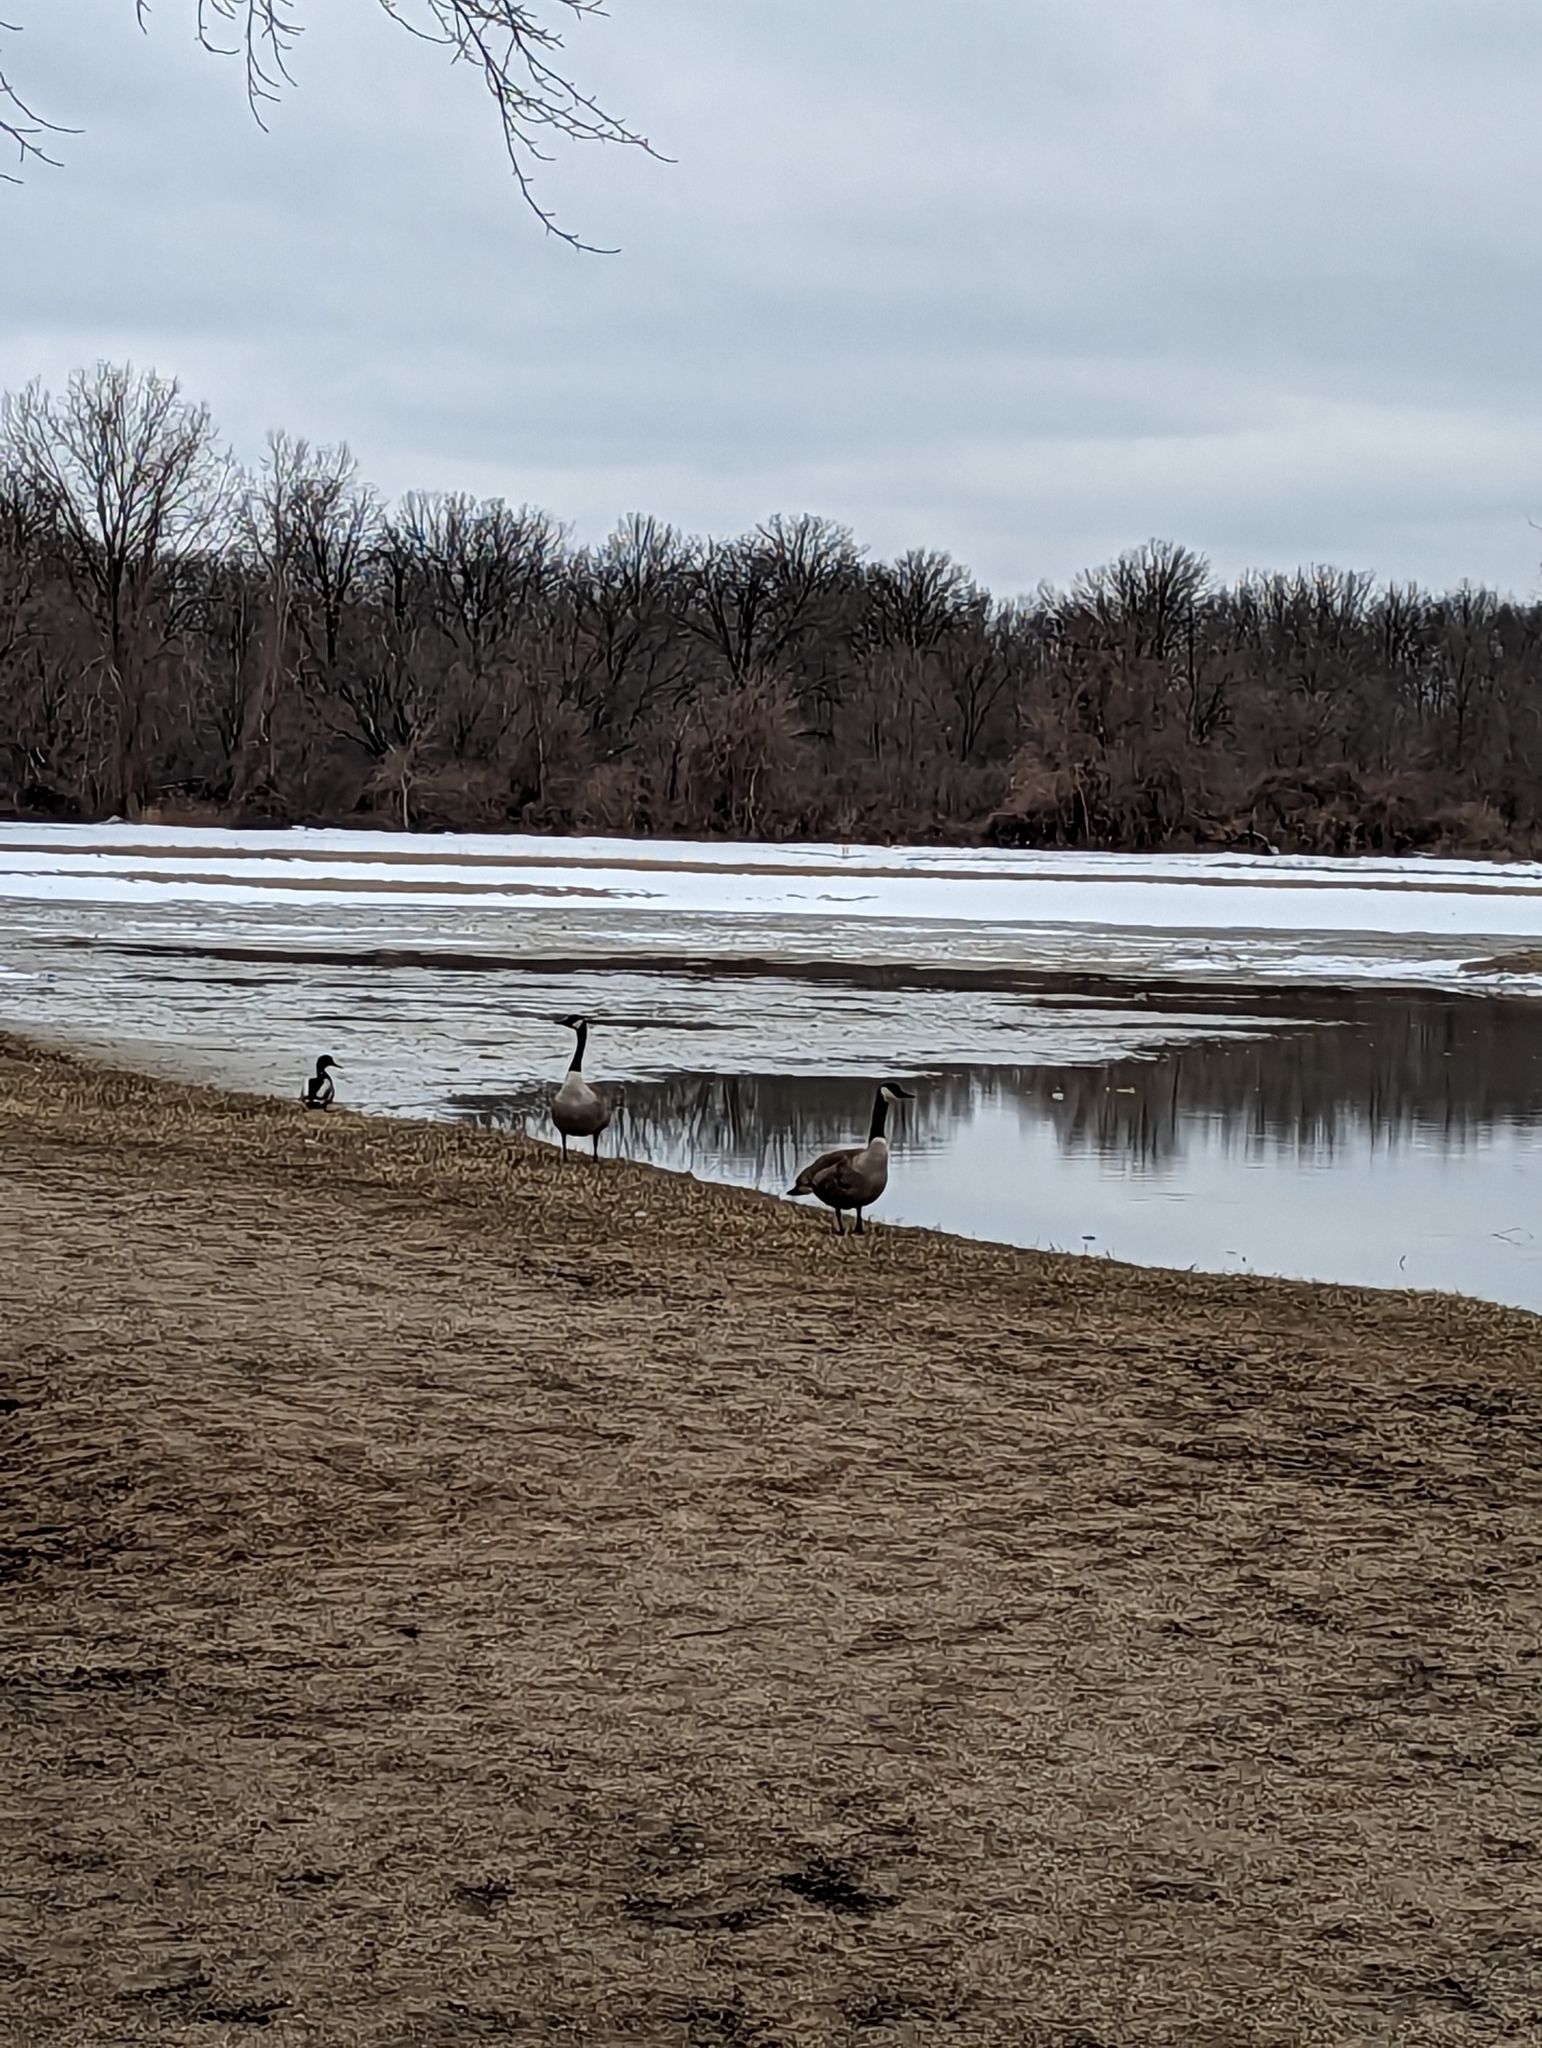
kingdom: Animalia
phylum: Chordata
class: Aves
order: Anseriformes
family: Anatidae
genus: Branta
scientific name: Branta canadensis
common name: Canada goose
